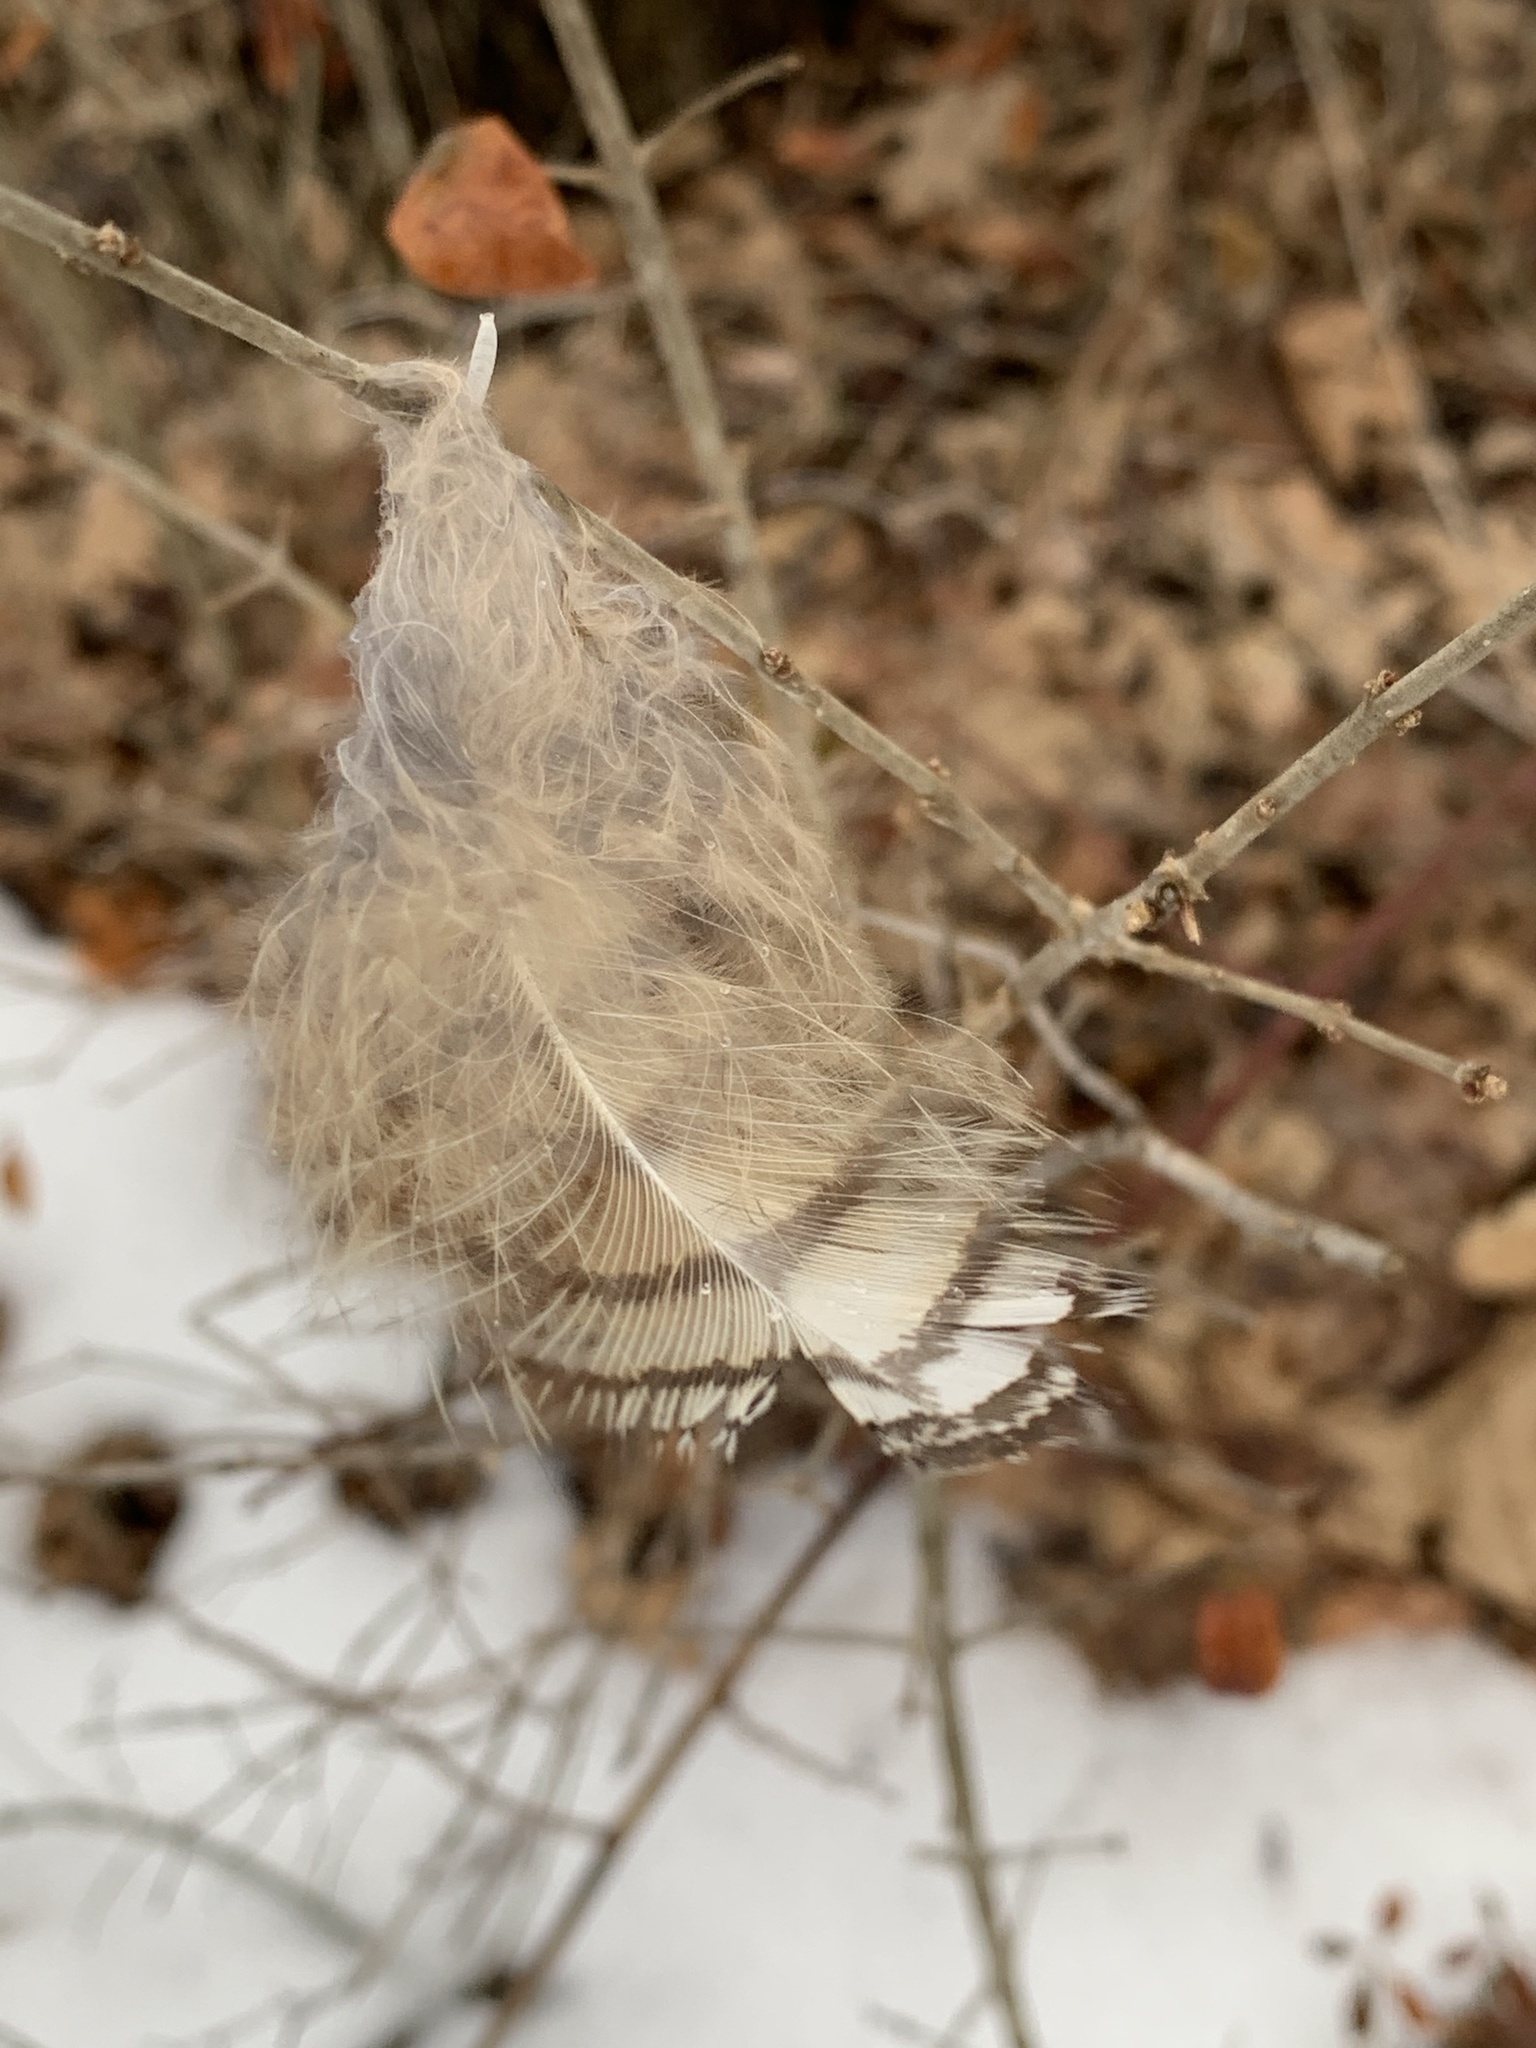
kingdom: Animalia
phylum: Chordata
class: Aves
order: Strigiformes
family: Strigidae
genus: Bubo
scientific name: Bubo virginianus
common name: Great horned owl
